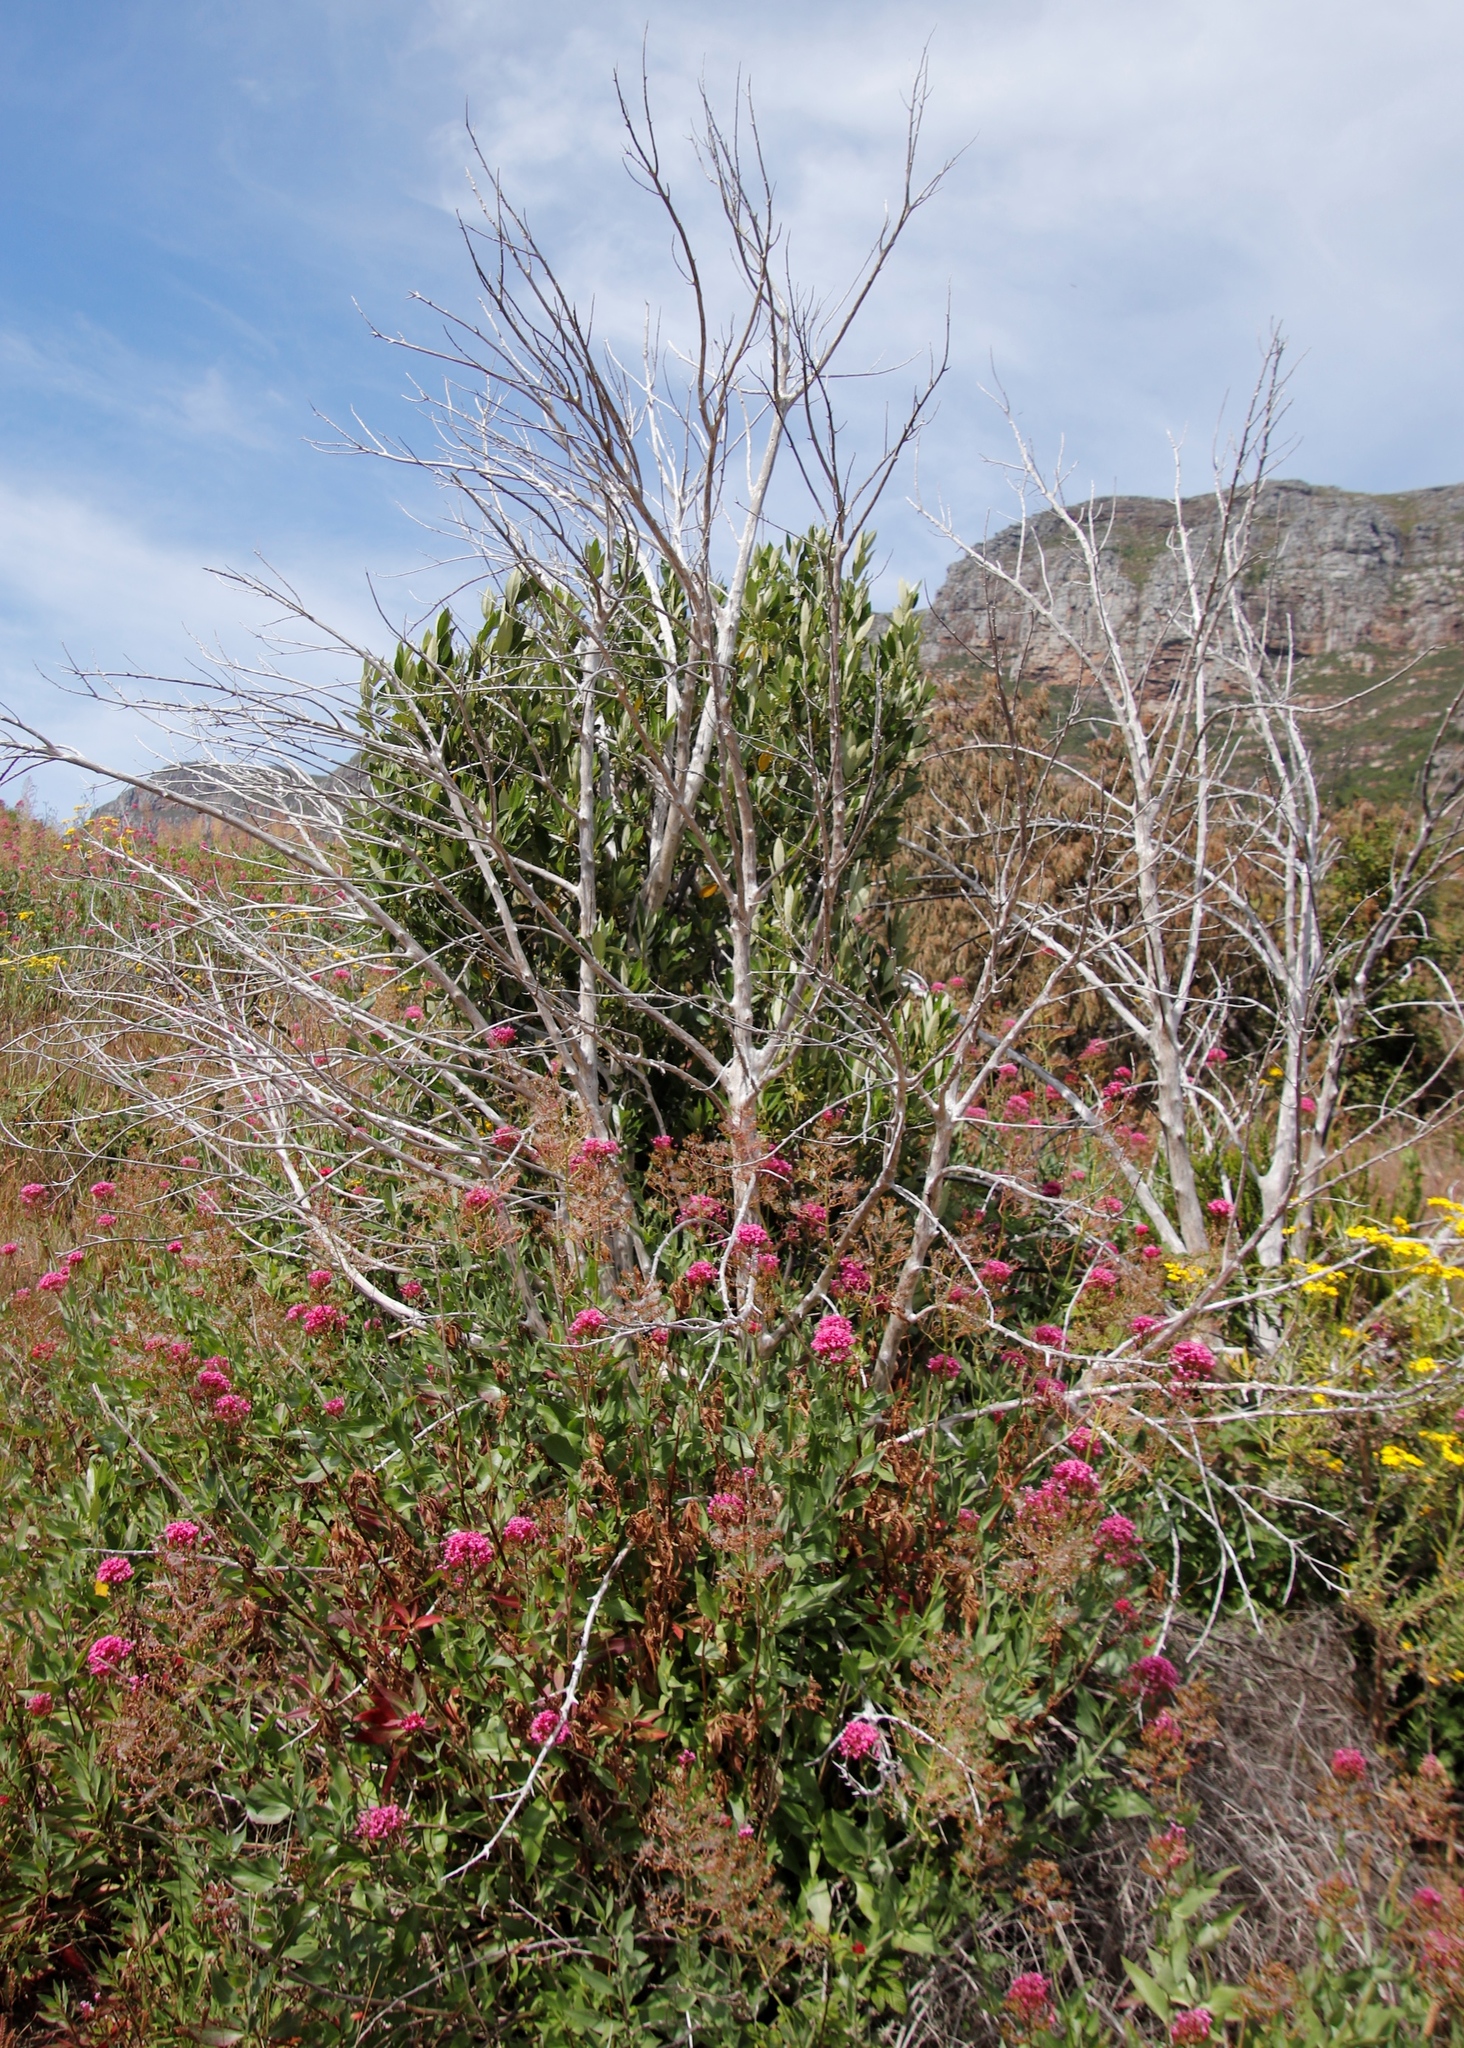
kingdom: Plantae
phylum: Tracheophyta
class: Magnoliopsida
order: Dipsacales
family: Caprifoliaceae
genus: Centranthus
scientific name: Centranthus ruber
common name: Red valerian
